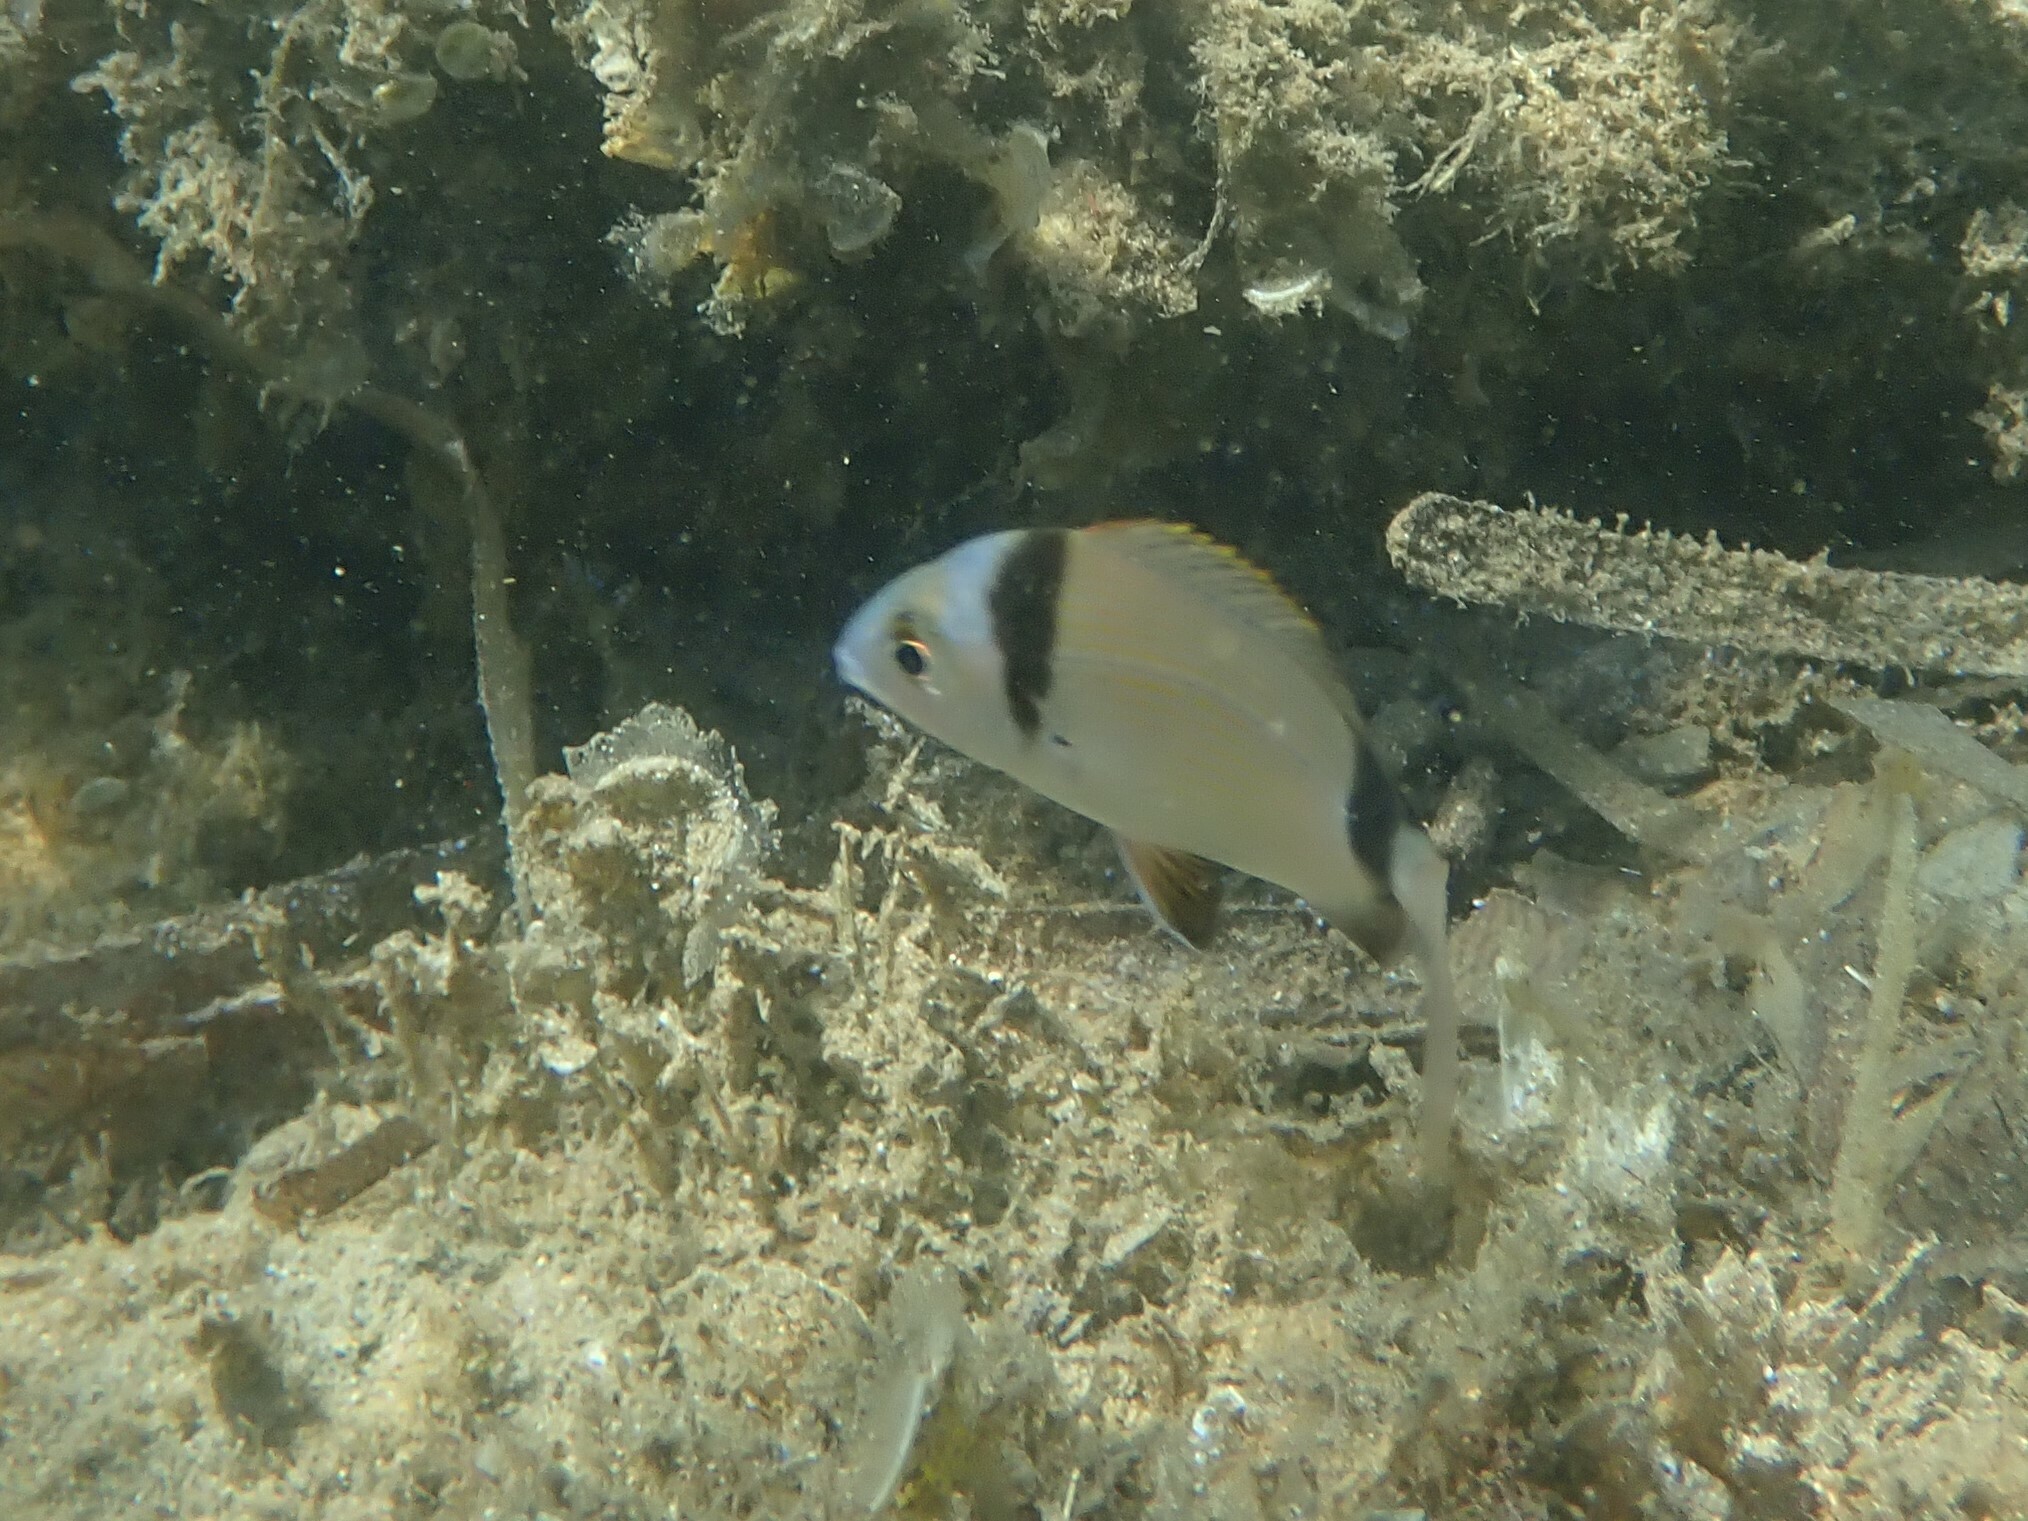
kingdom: Animalia
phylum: Chordata
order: Perciformes
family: Sparidae
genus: Diplodus
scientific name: Diplodus vulgaris
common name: Common two-banded seabream
